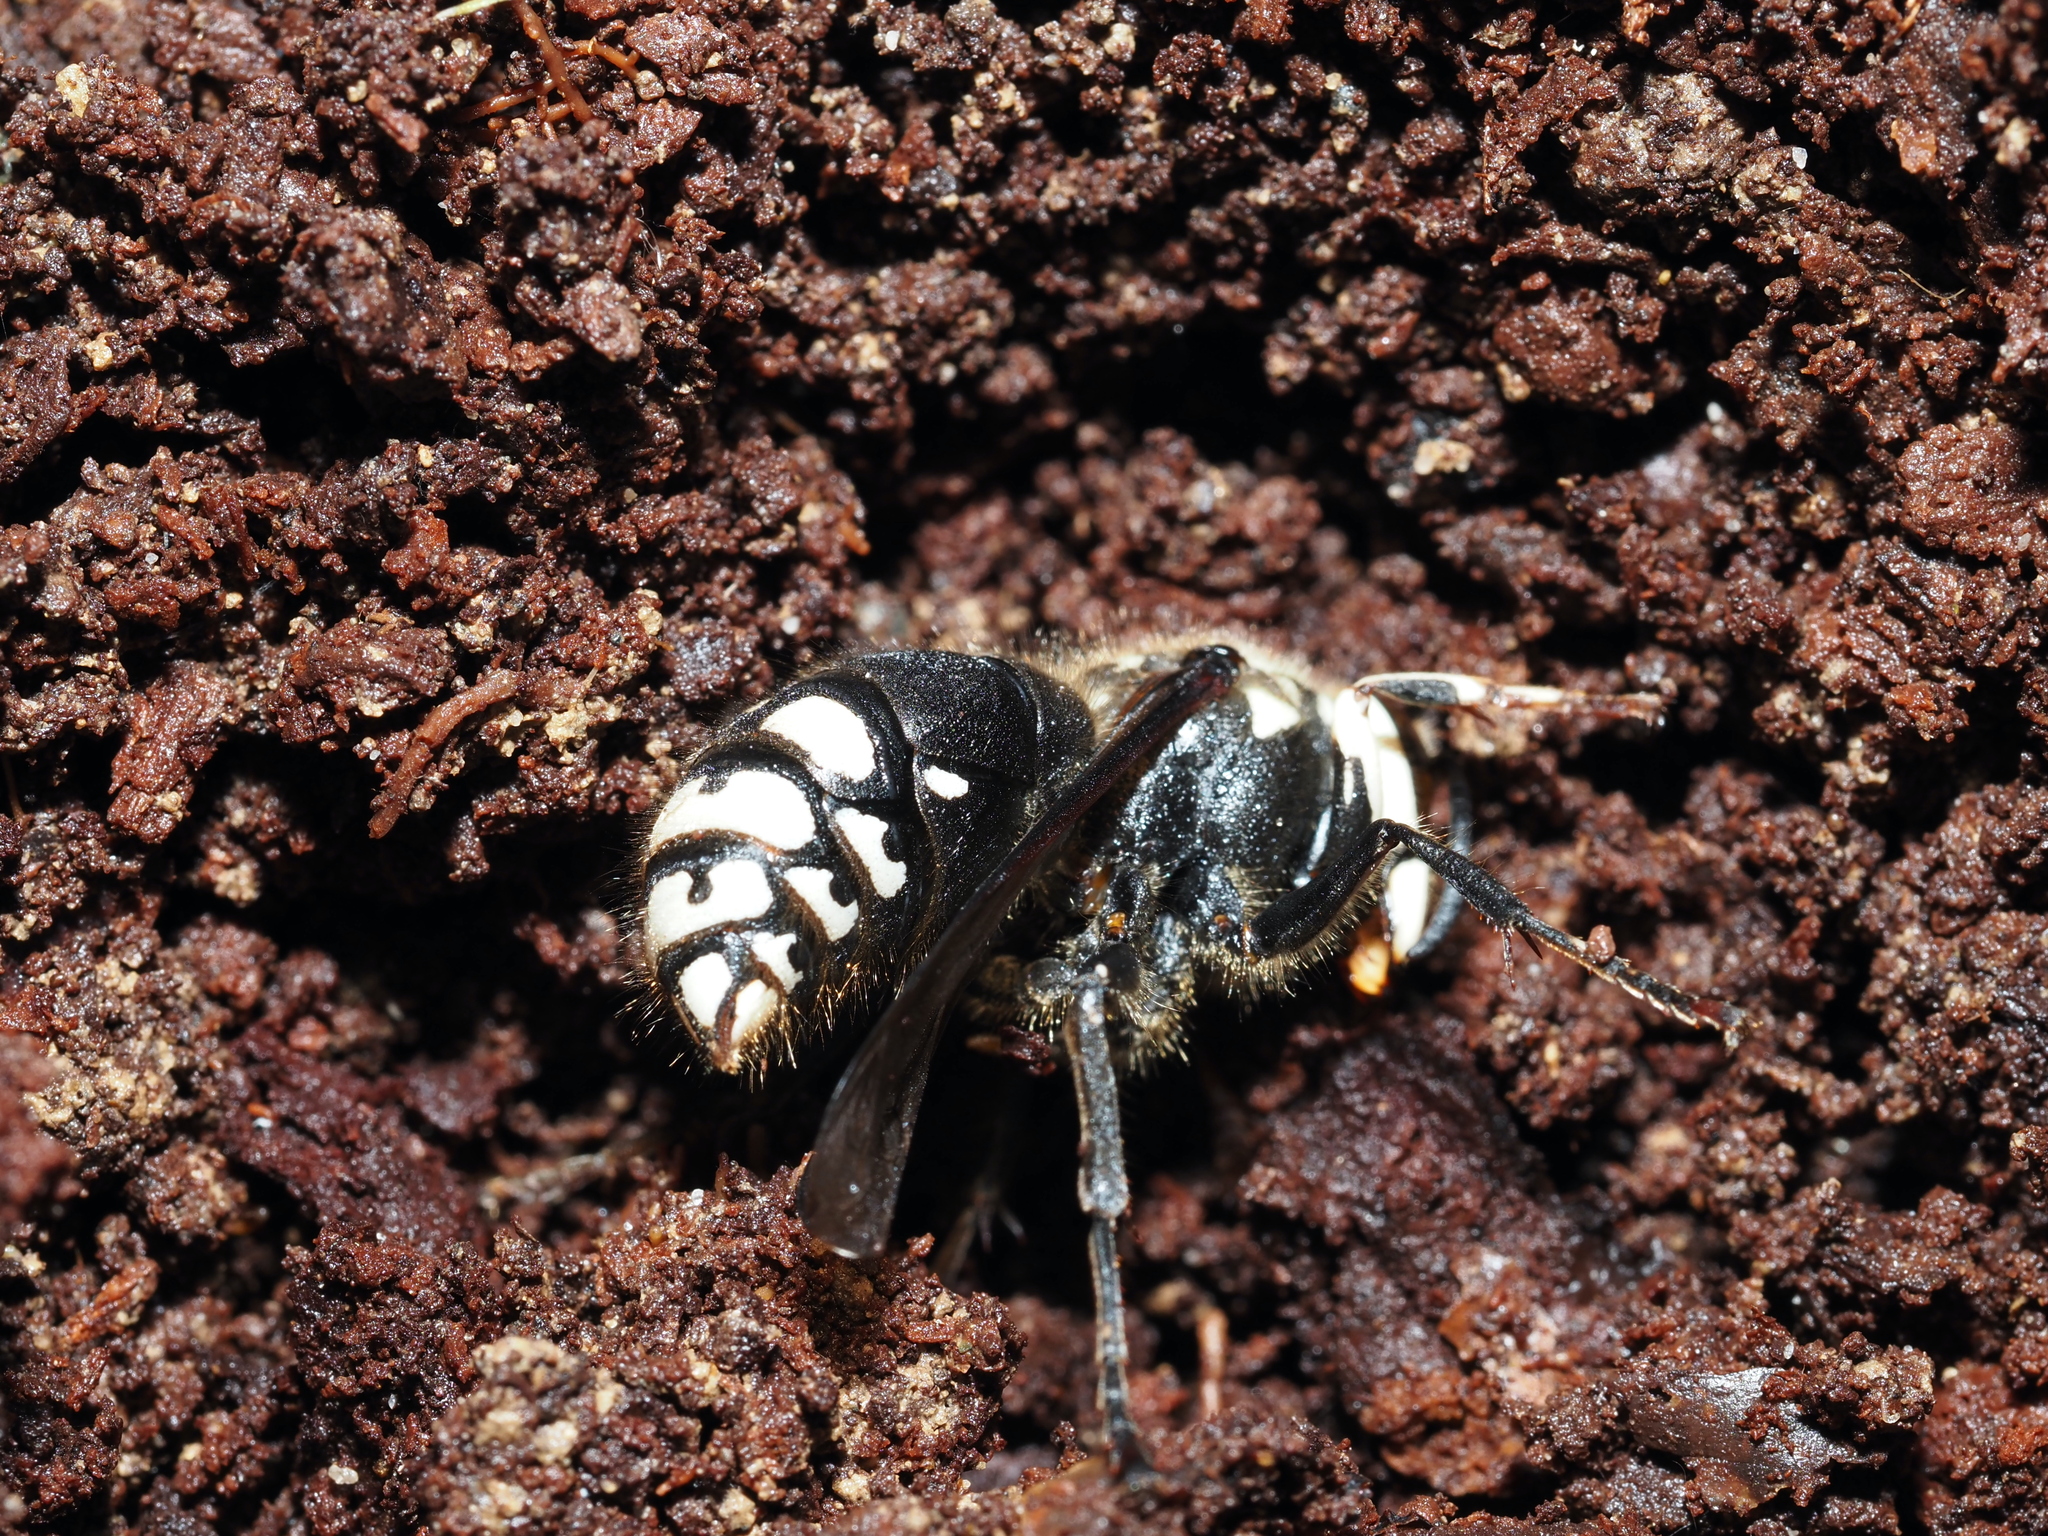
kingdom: Animalia
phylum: Arthropoda
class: Insecta
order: Hymenoptera
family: Vespidae
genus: Dolichovespula
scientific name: Dolichovespula maculata
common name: Bald-faced hornet
